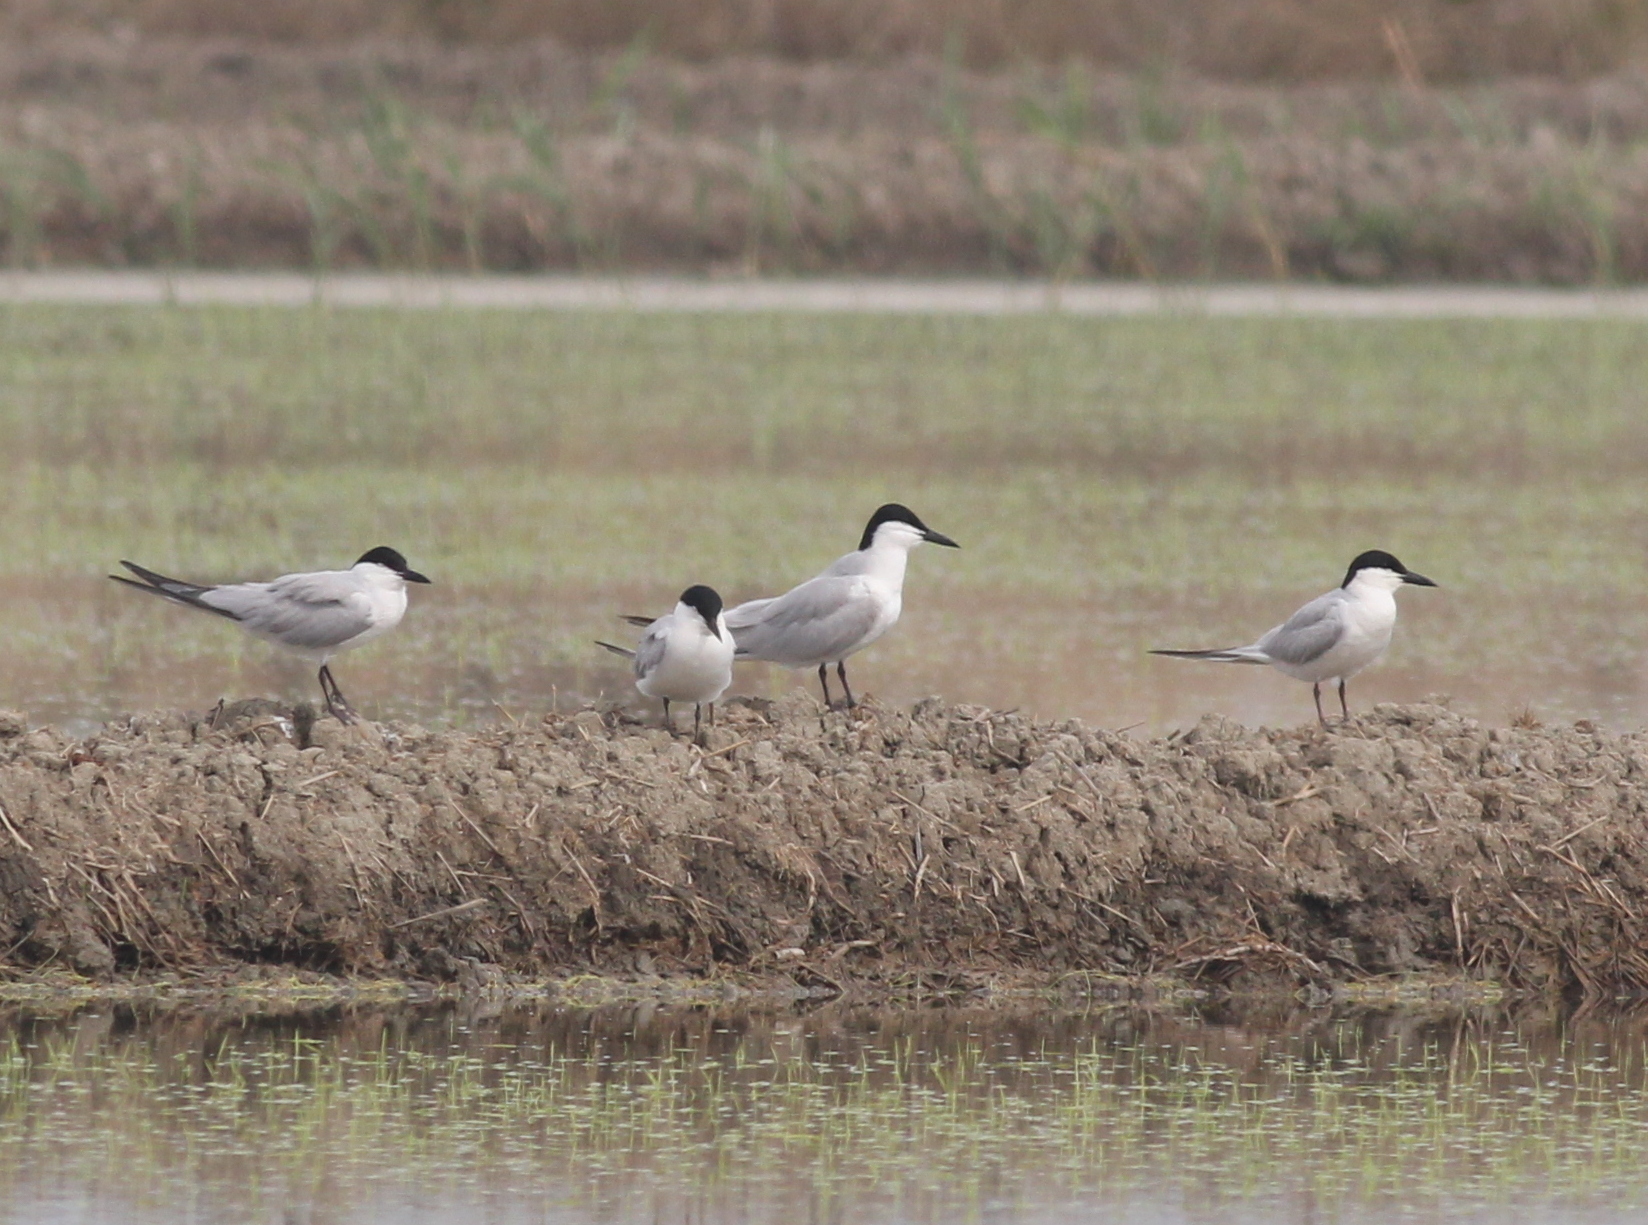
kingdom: Animalia
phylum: Chordata
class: Aves
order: Charadriiformes
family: Laridae
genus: Gelochelidon
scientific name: Gelochelidon nilotica
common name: Gull-billed tern
